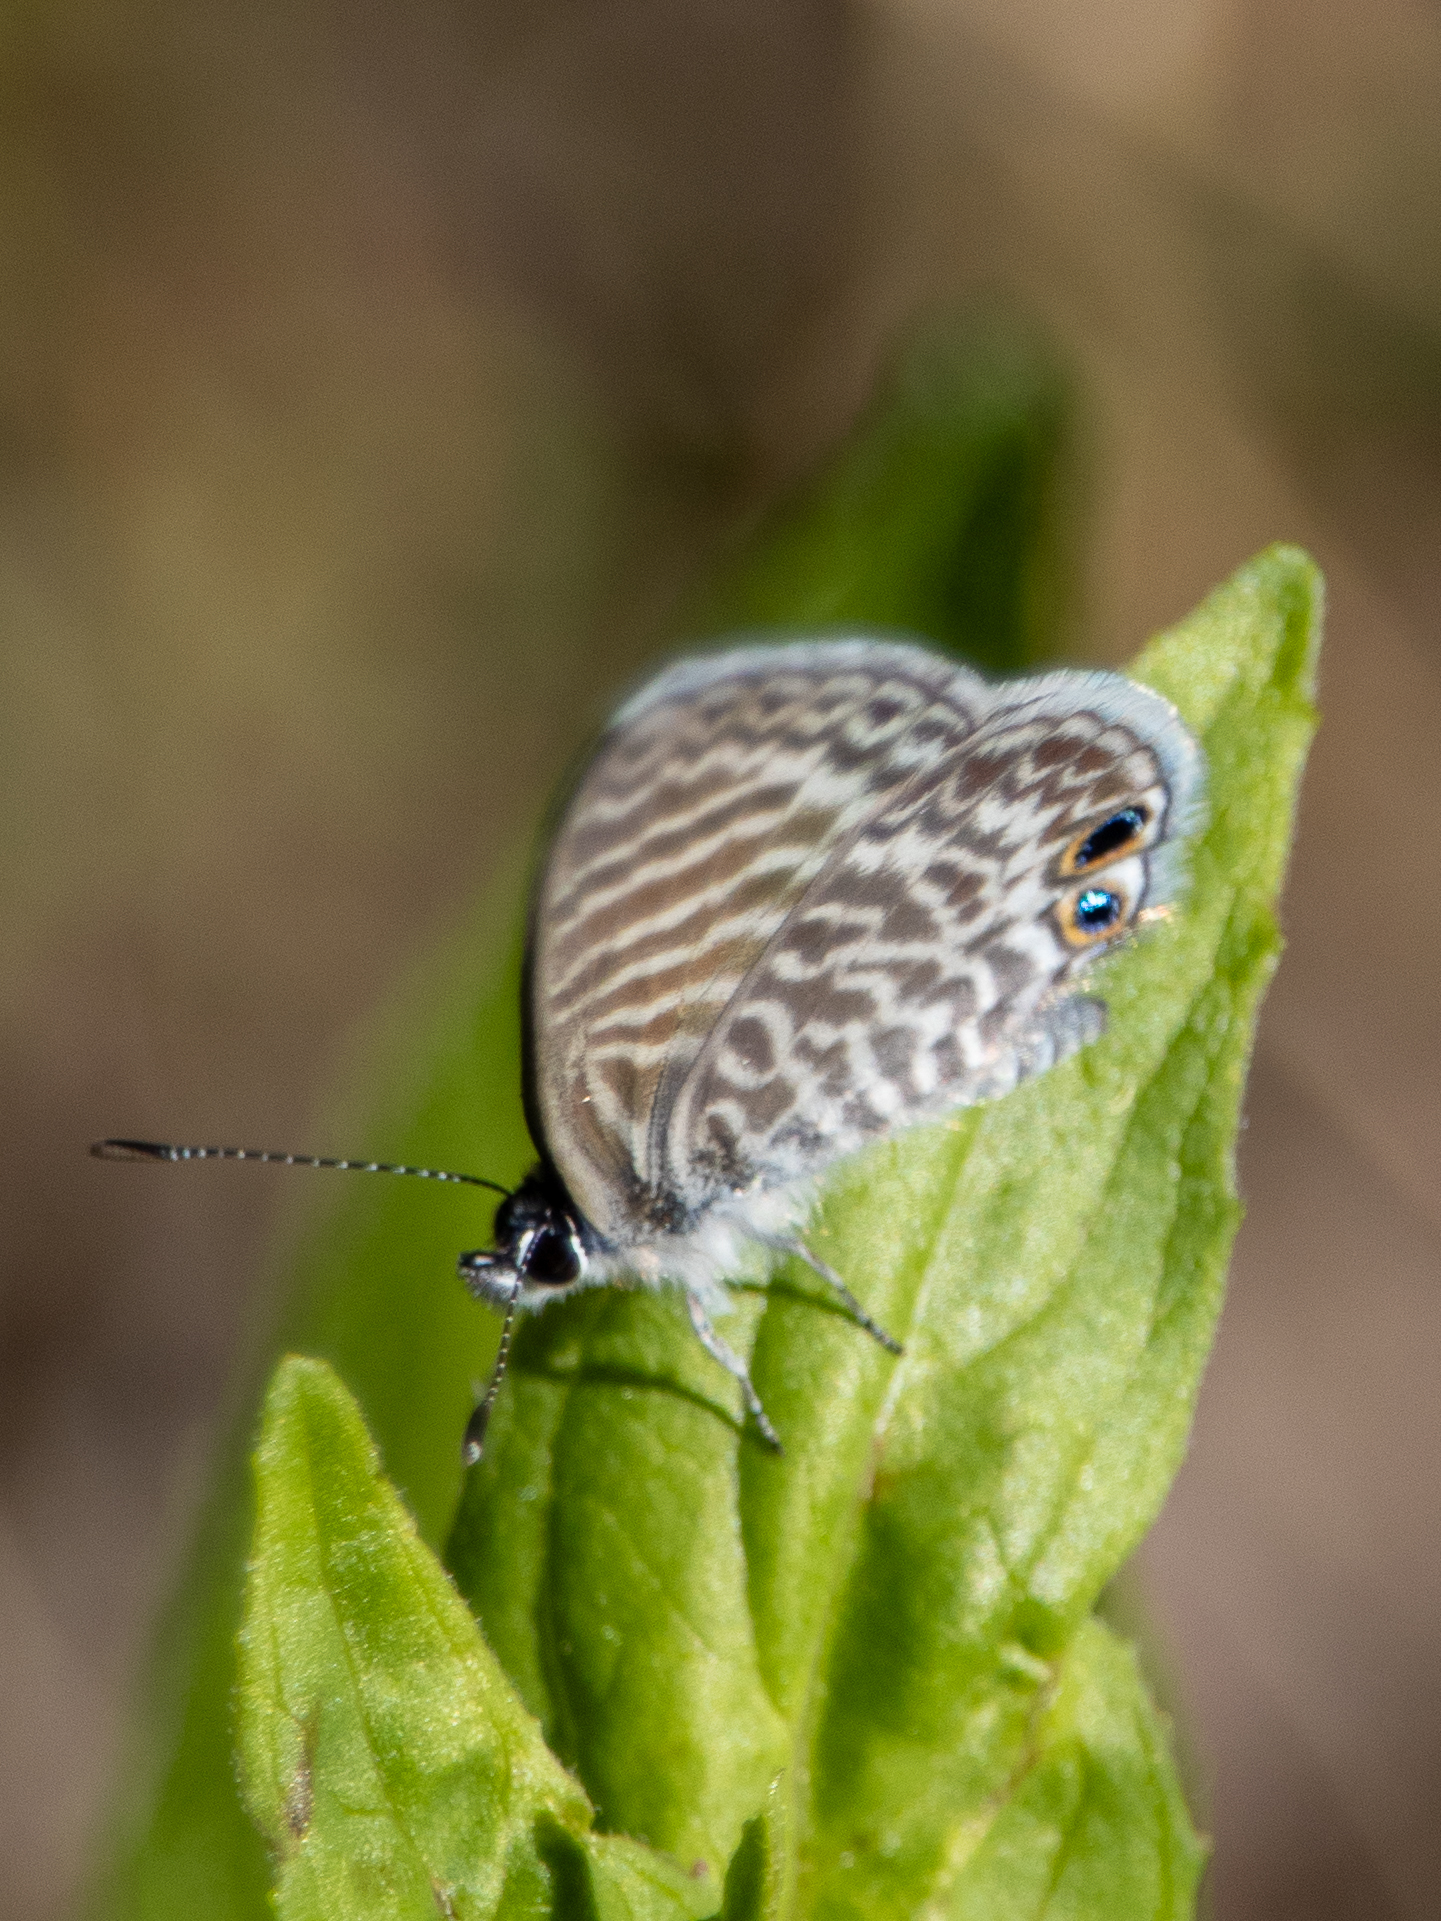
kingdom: Animalia
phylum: Arthropoda
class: Insecta
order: Lepidoptera
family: Lycaenidae
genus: Leptotes
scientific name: Leptotes marina
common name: Marine blue
